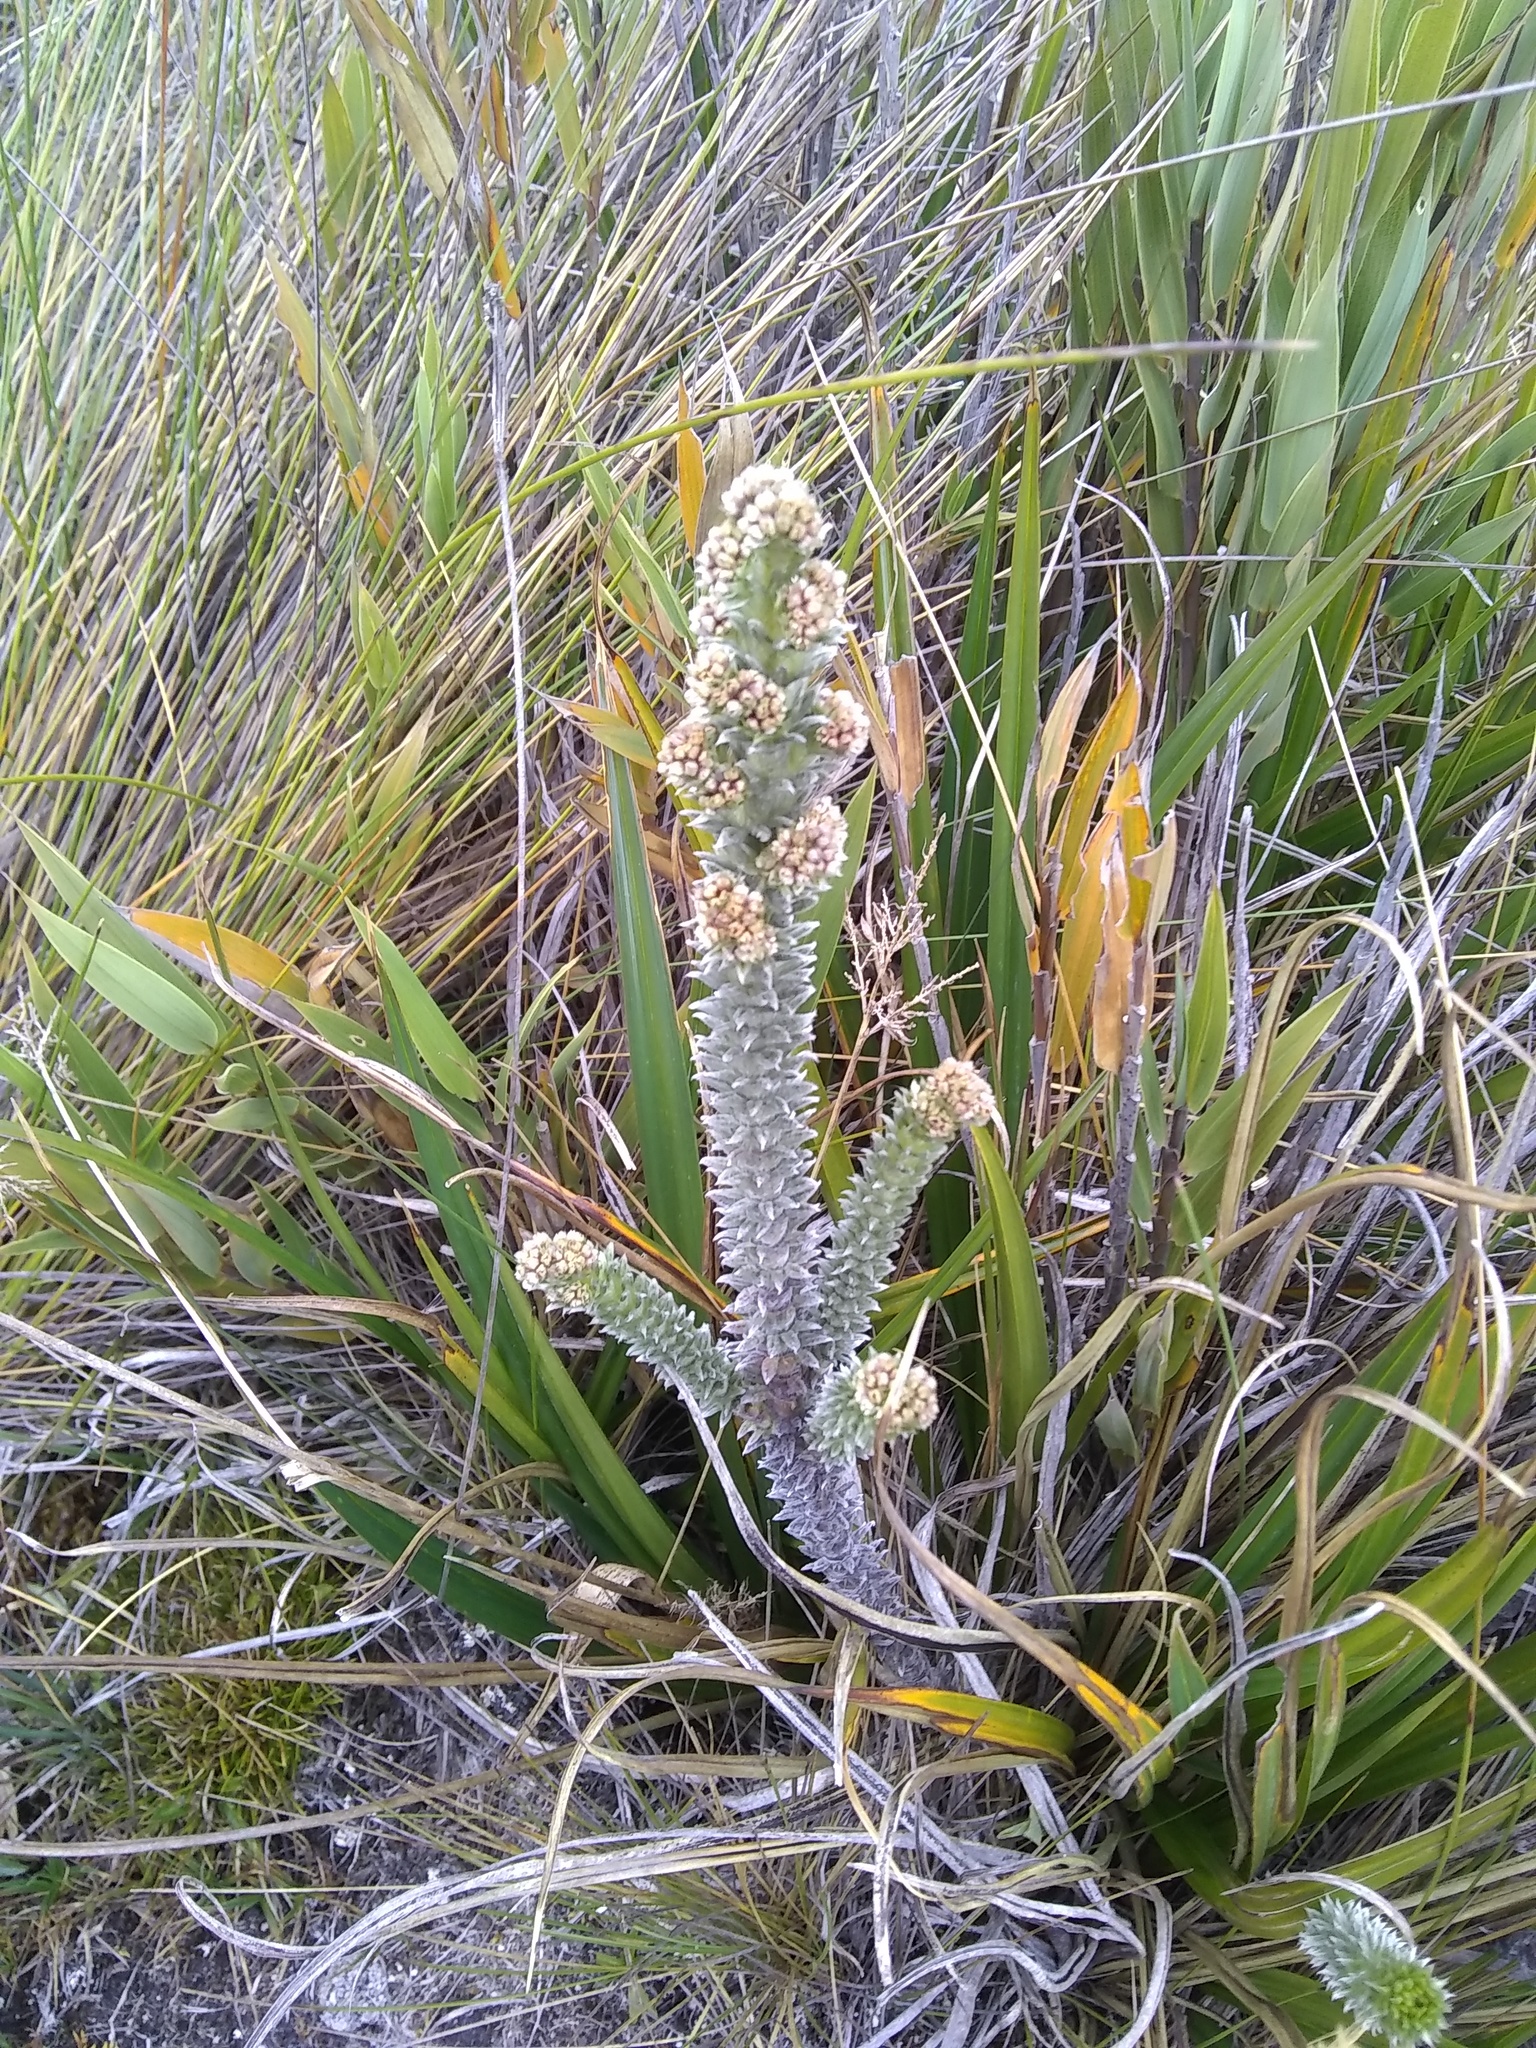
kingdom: Plantae
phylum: Tracheophyta
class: Magnoliopsida
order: Rosales
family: Rosaceae
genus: Lachemilla
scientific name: Lachemilla nivalis
